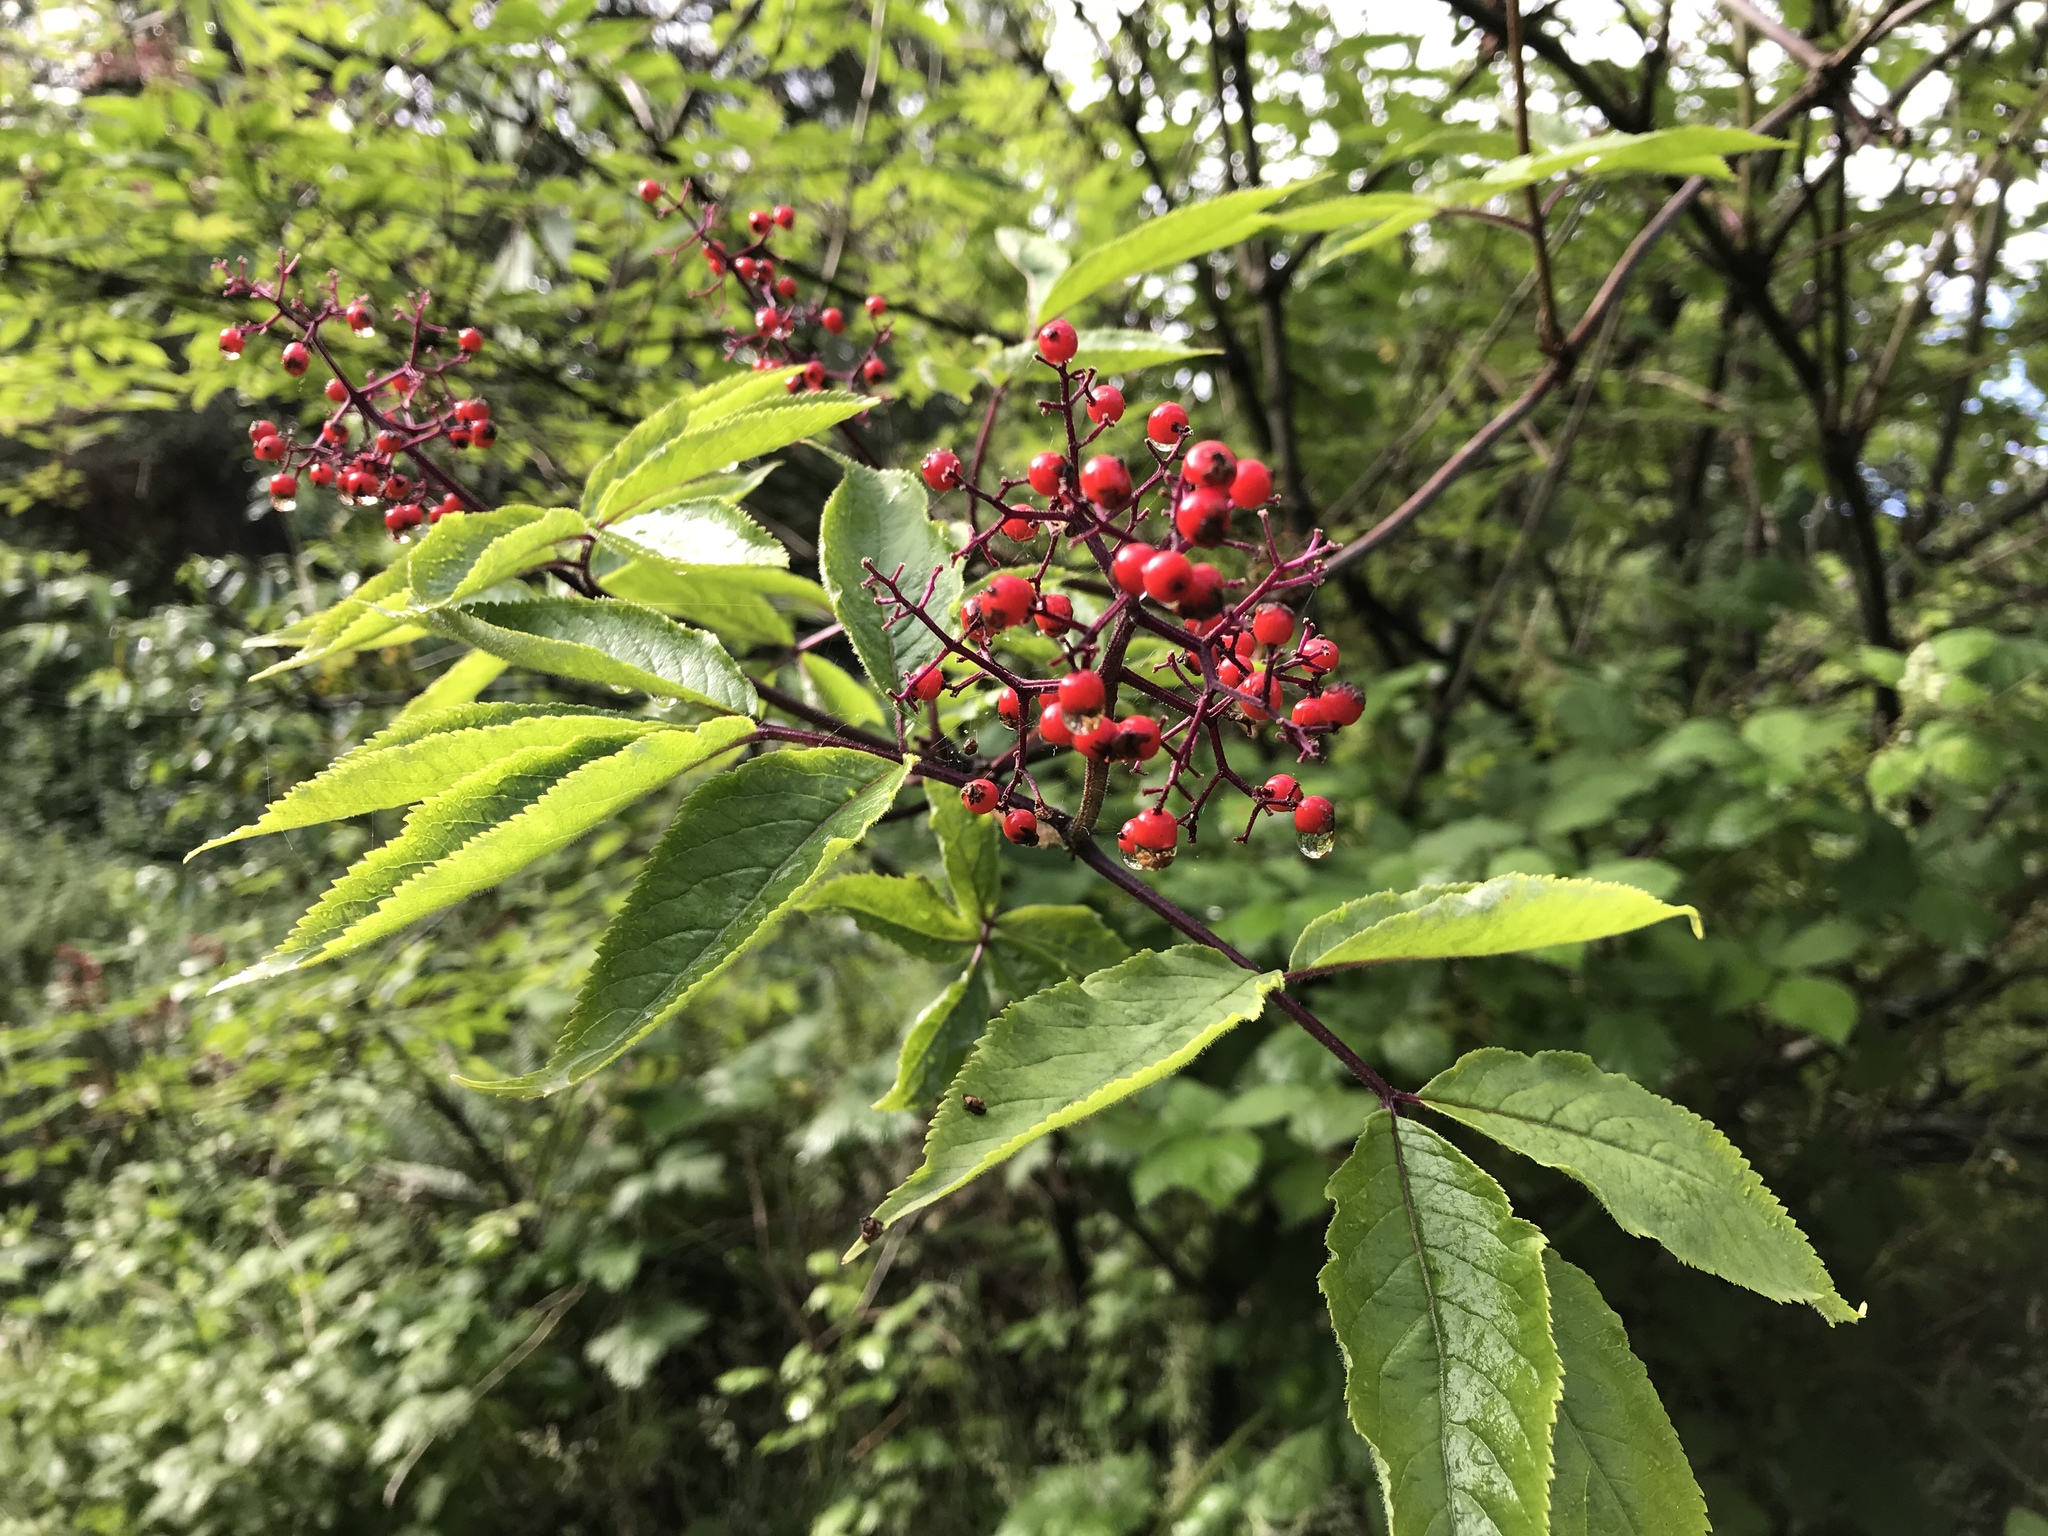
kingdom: Plantae
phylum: Tracheophyta
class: Magnoliopsida
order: Dipsacales
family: Viburnaceae
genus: Sambucus
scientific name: Sambucus racemosa
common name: Red-berried elder
